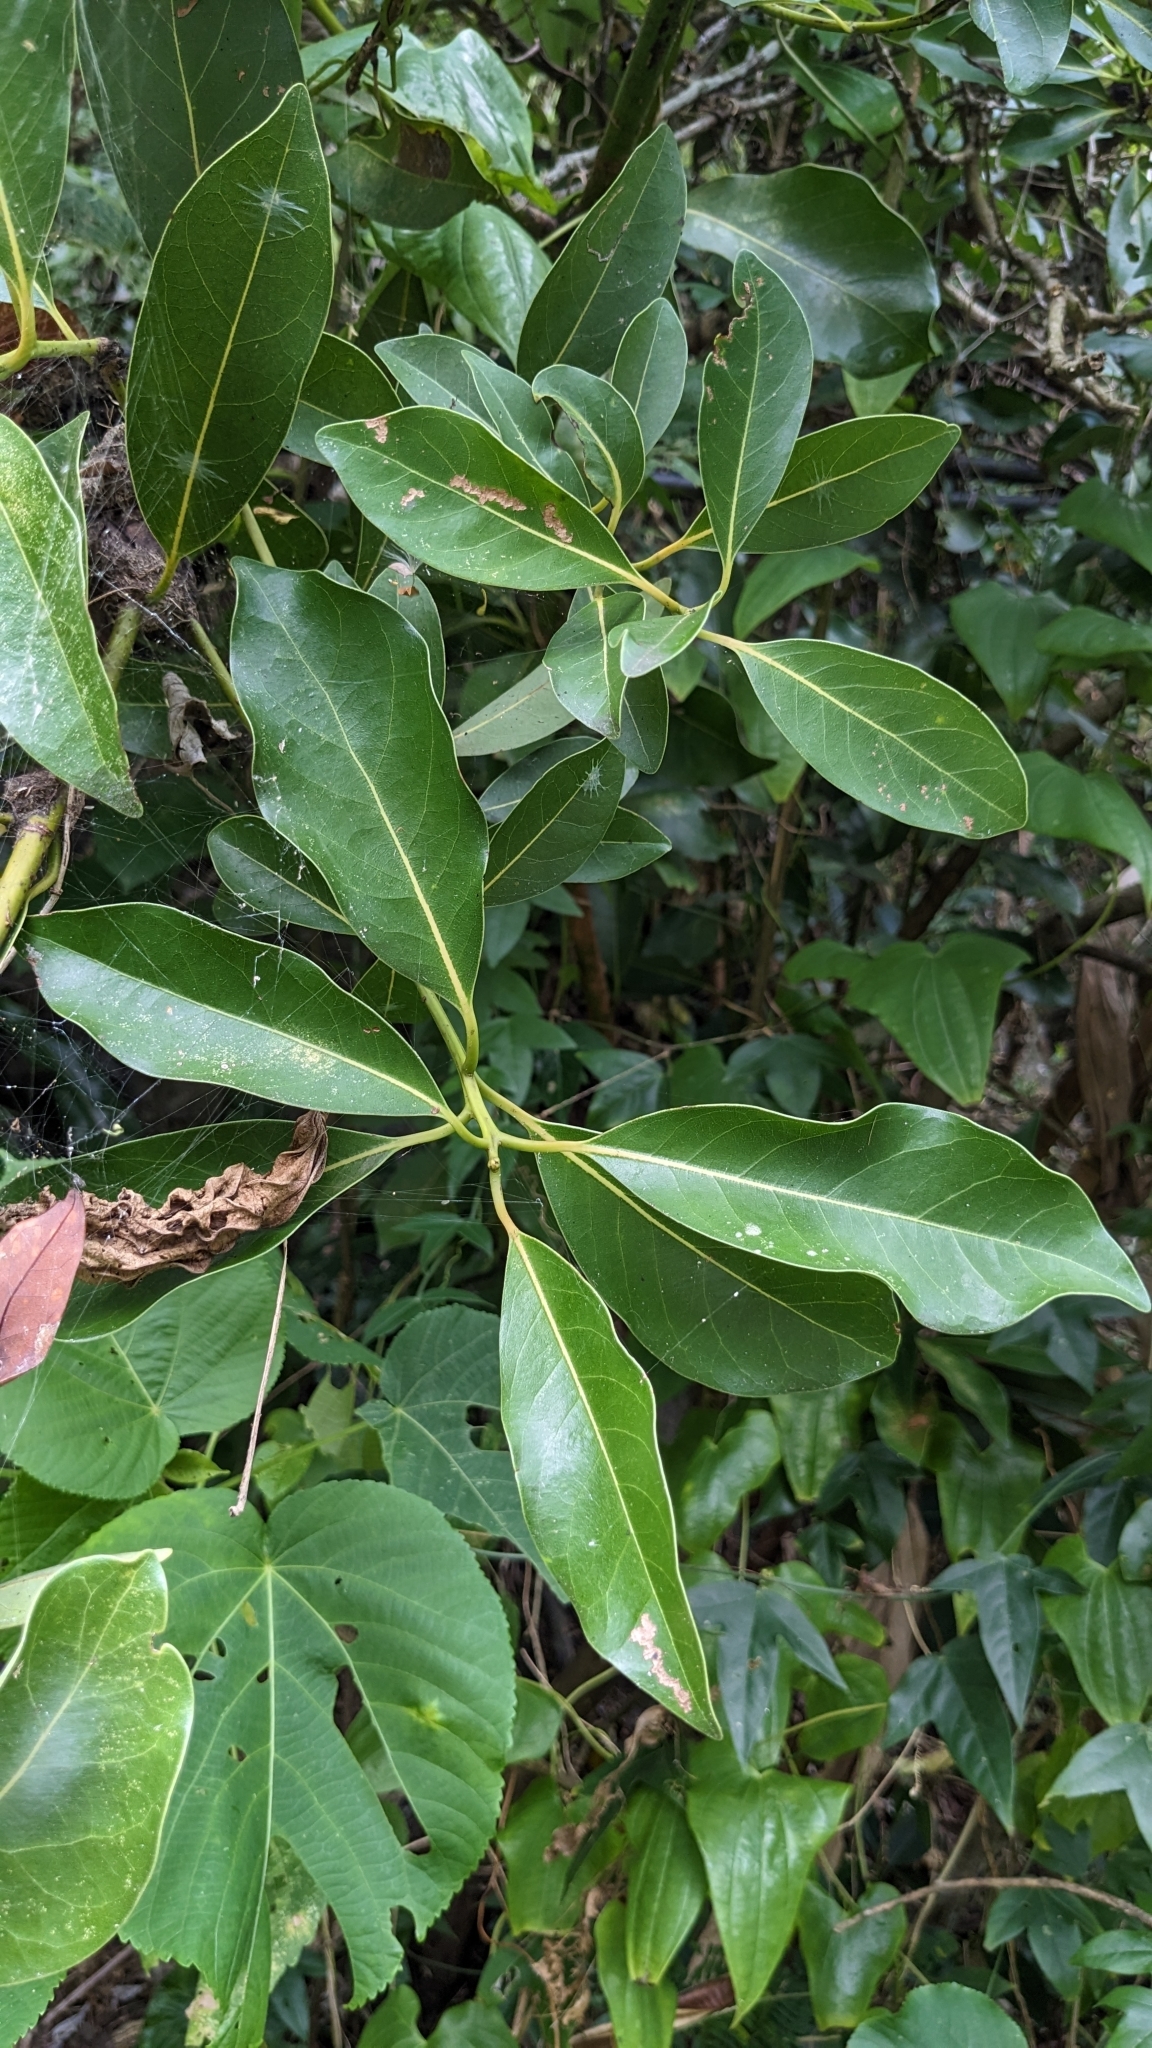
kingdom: Plantae
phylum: Tracheophyta
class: Magnoliopsida
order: Laurales
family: Lauraceae
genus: Machilus
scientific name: Machilus thunbergii
